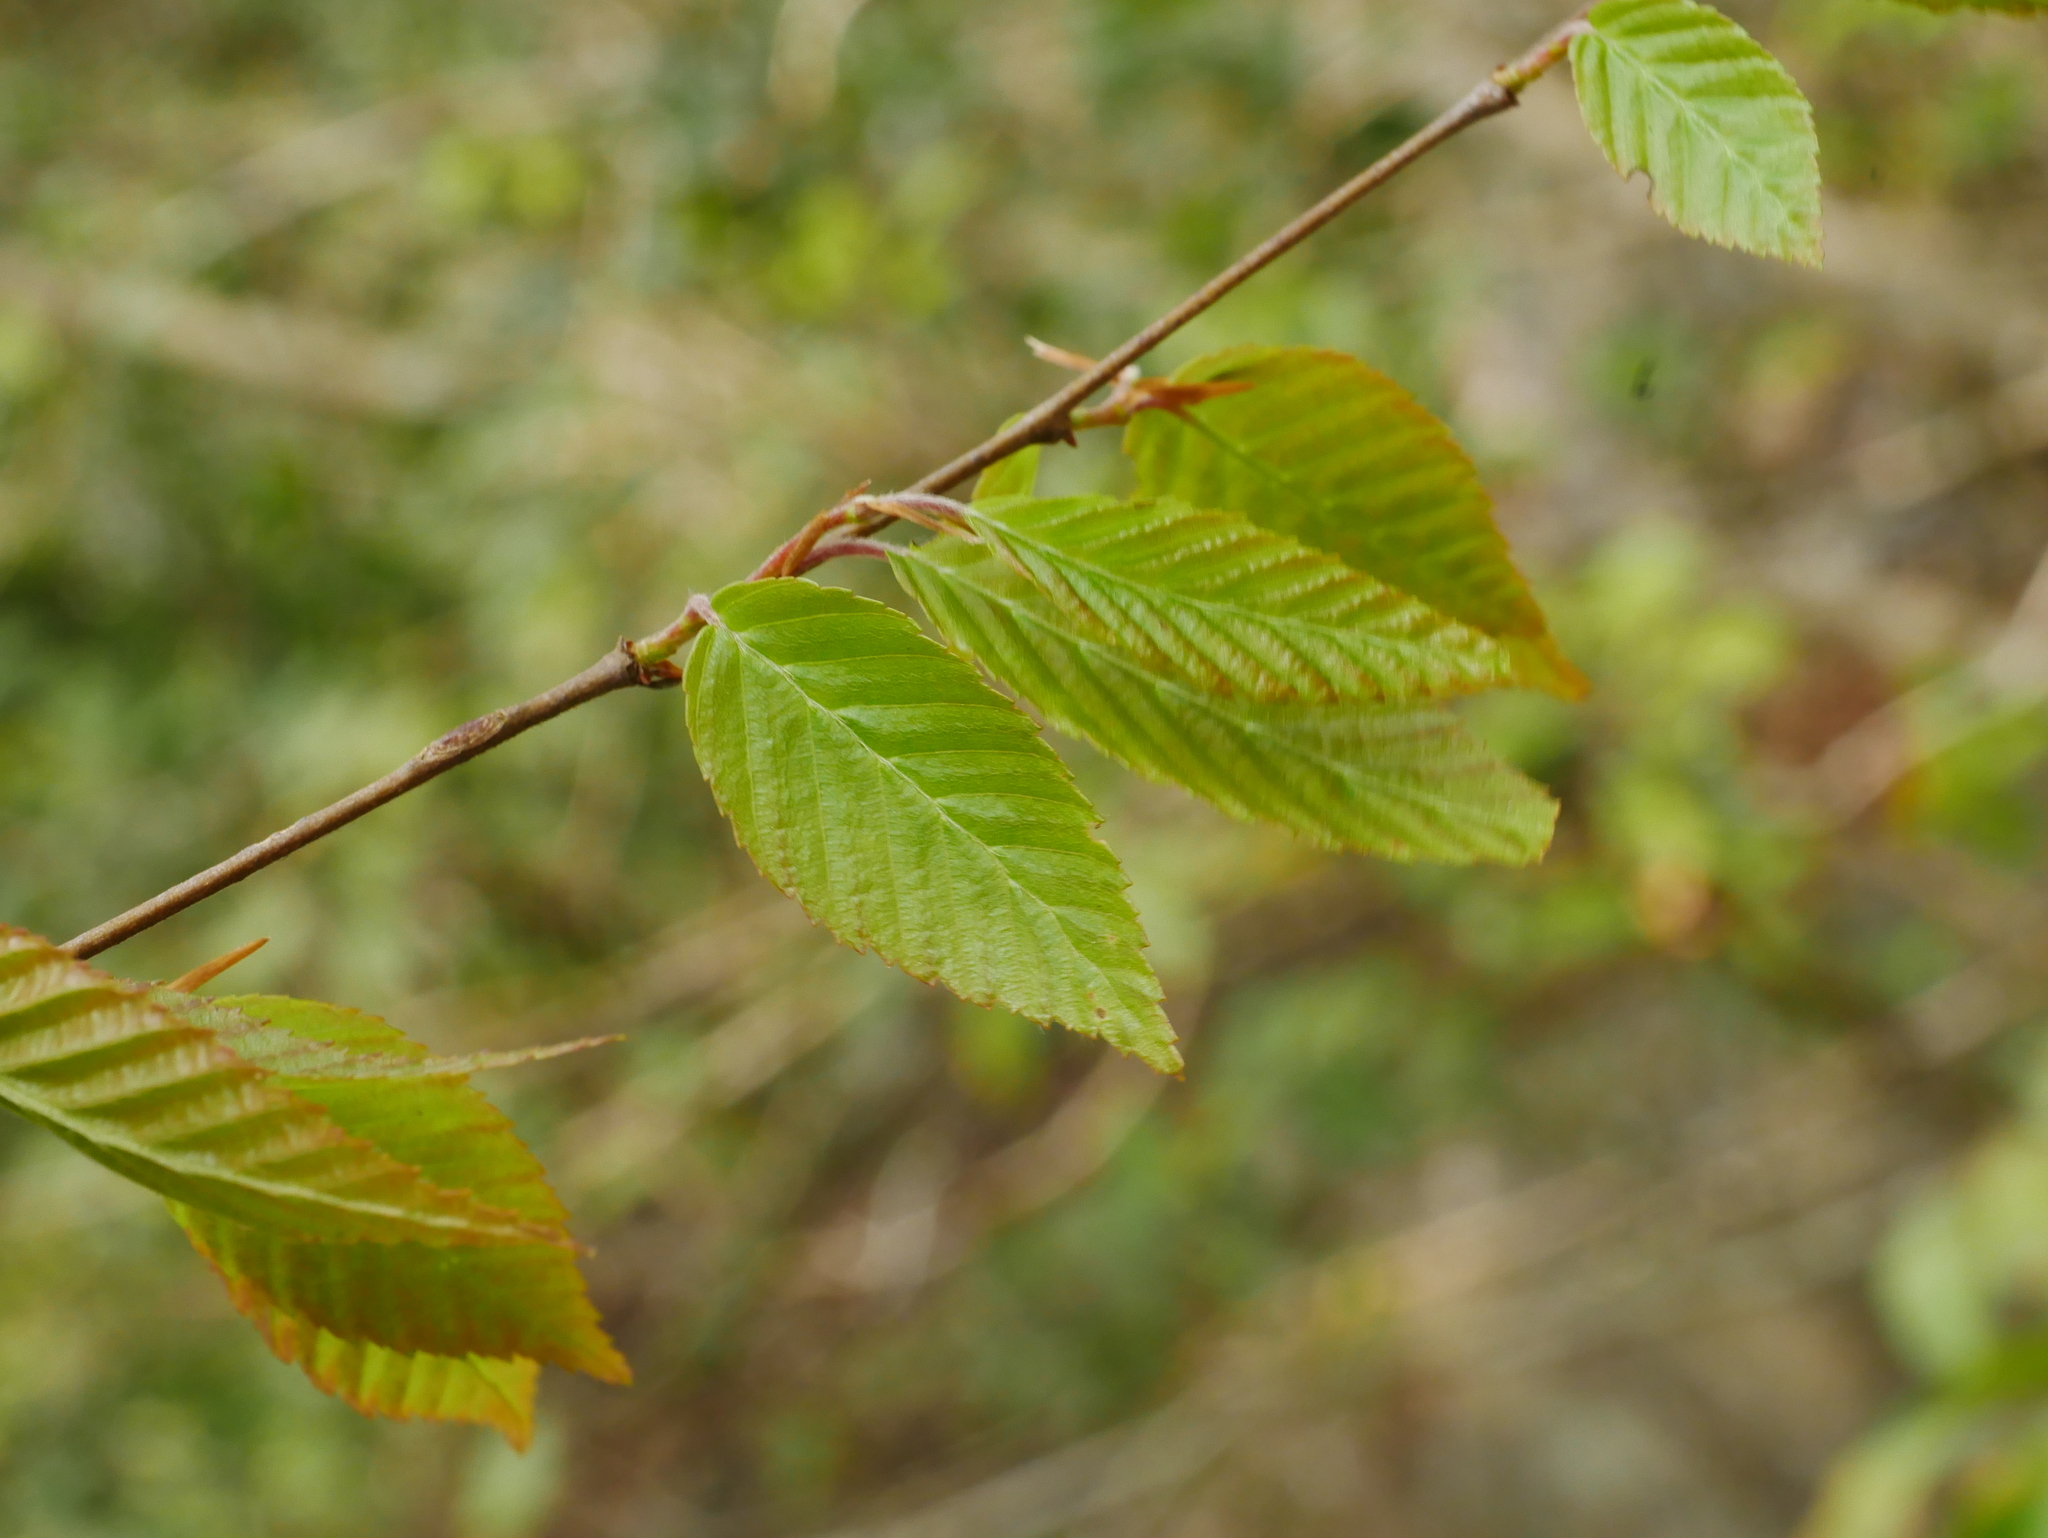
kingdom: Plantae
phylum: Tracheophyta
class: Magnoliopsida
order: Fagales
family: Betulaceae
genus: Carpinus
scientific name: Carpinus kawakamii
